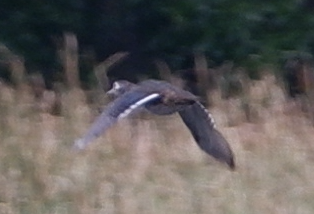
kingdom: Animalia
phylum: Chordata
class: Aves
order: Anseriformes
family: Anatidae
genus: Aix
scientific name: Aix sponsa
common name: Wood duck
